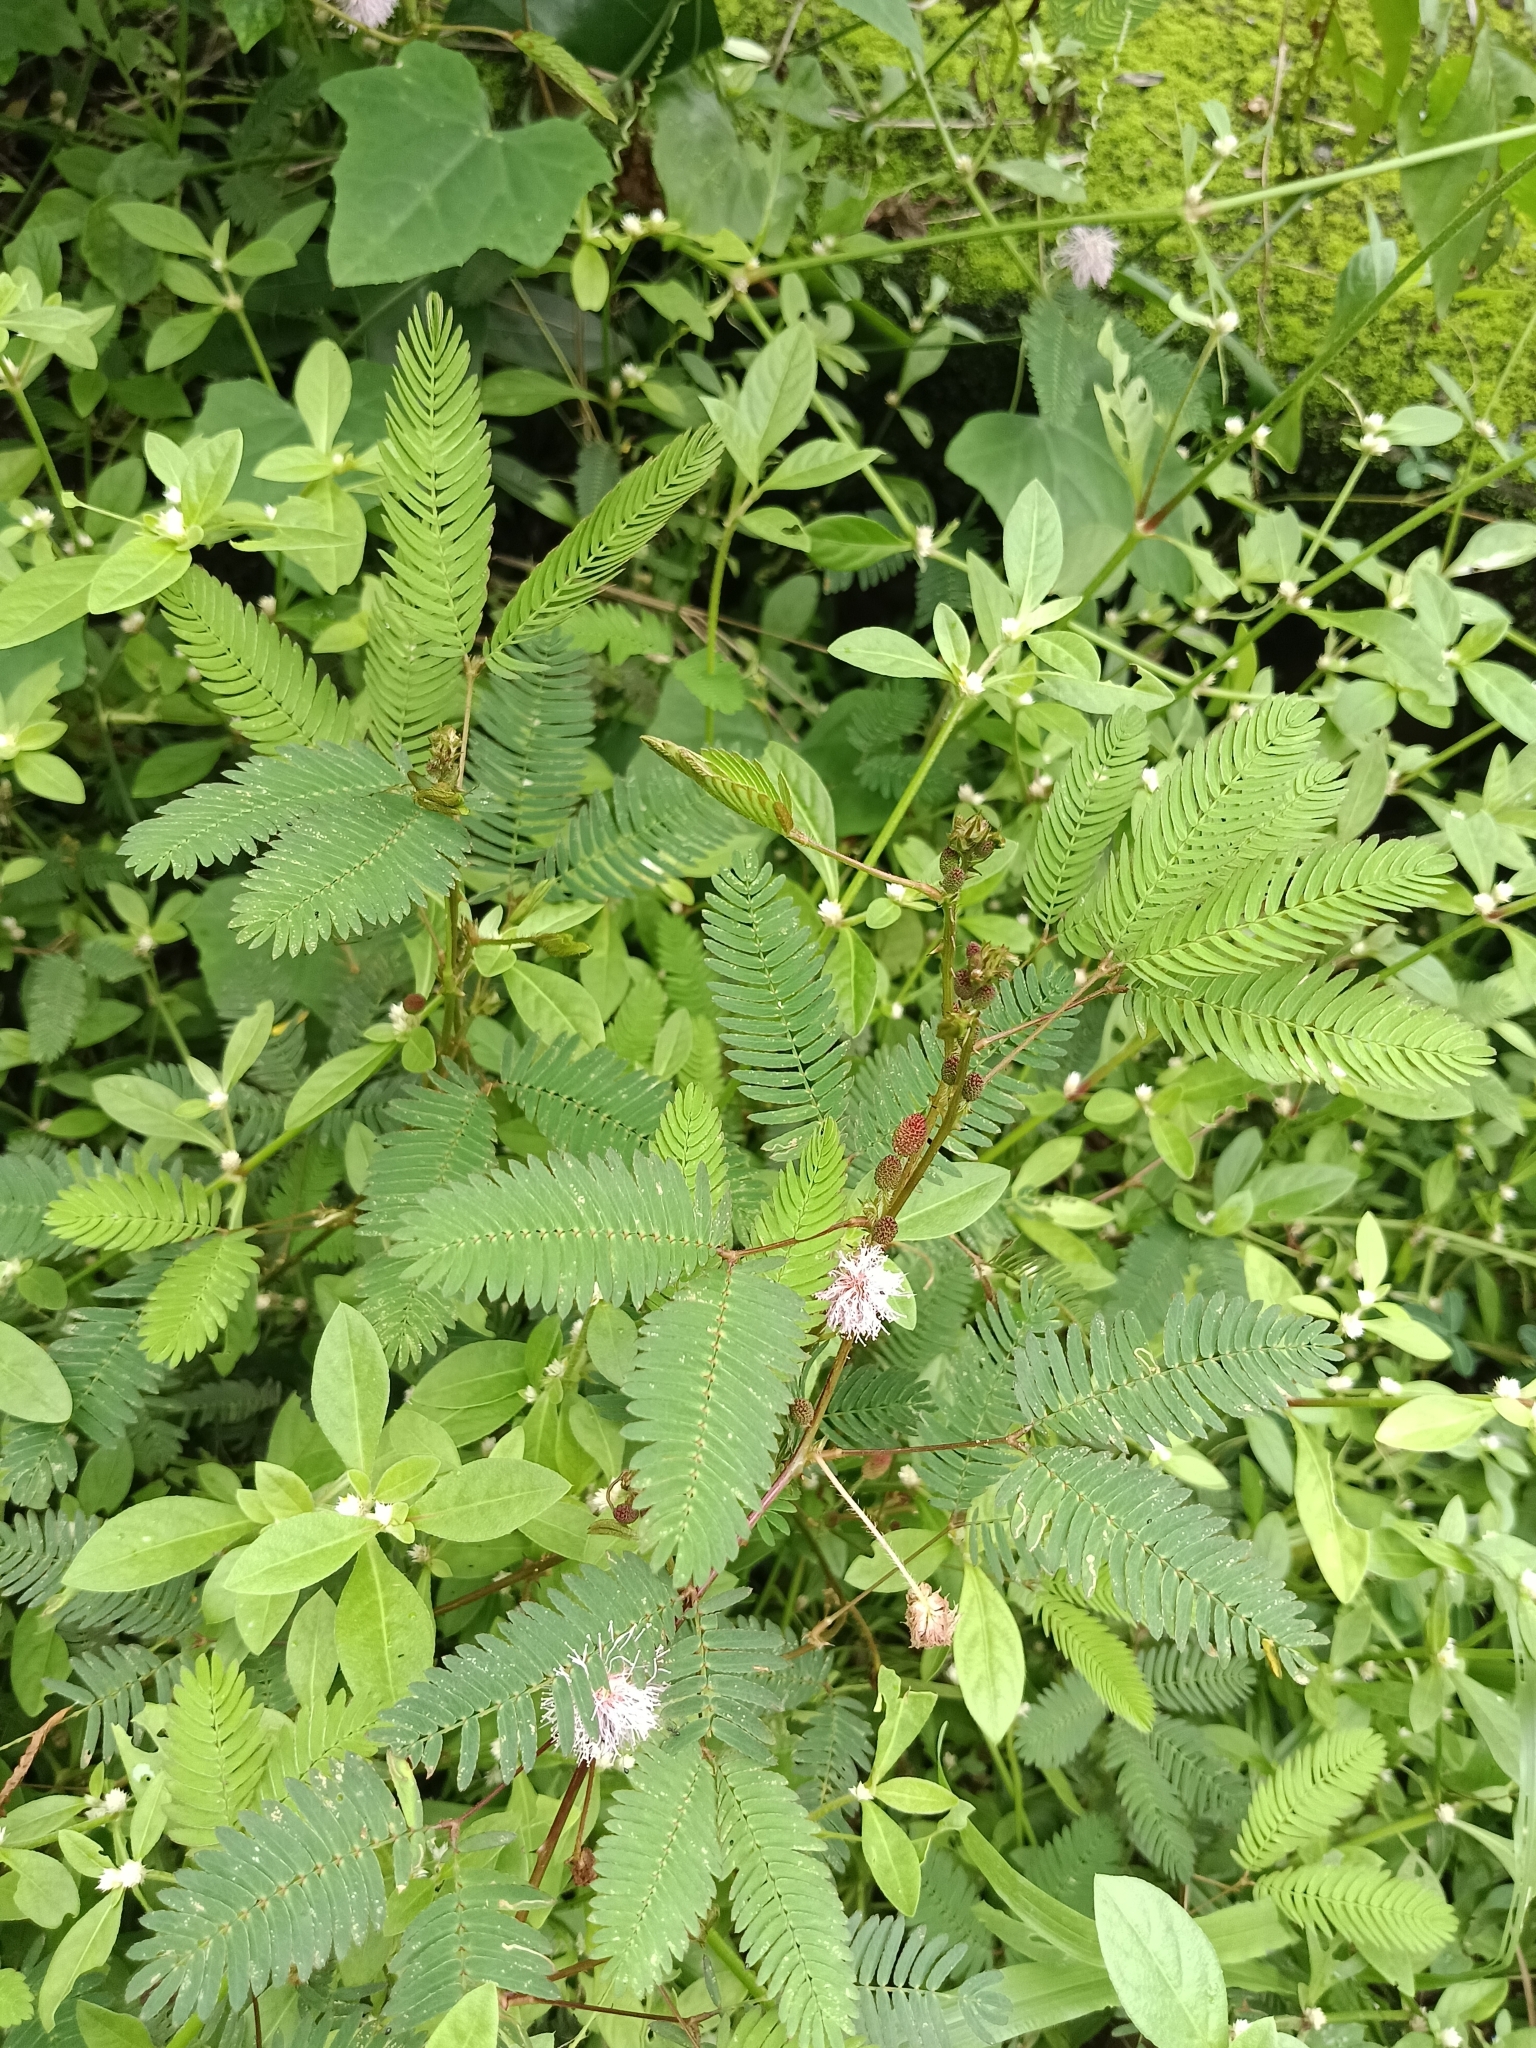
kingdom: Plantae
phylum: Tracheophyta
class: Magnoliopsida
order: Fabales
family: Fabaceae
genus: Mimosa
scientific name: Mimosa pudica
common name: Sensitive plant
